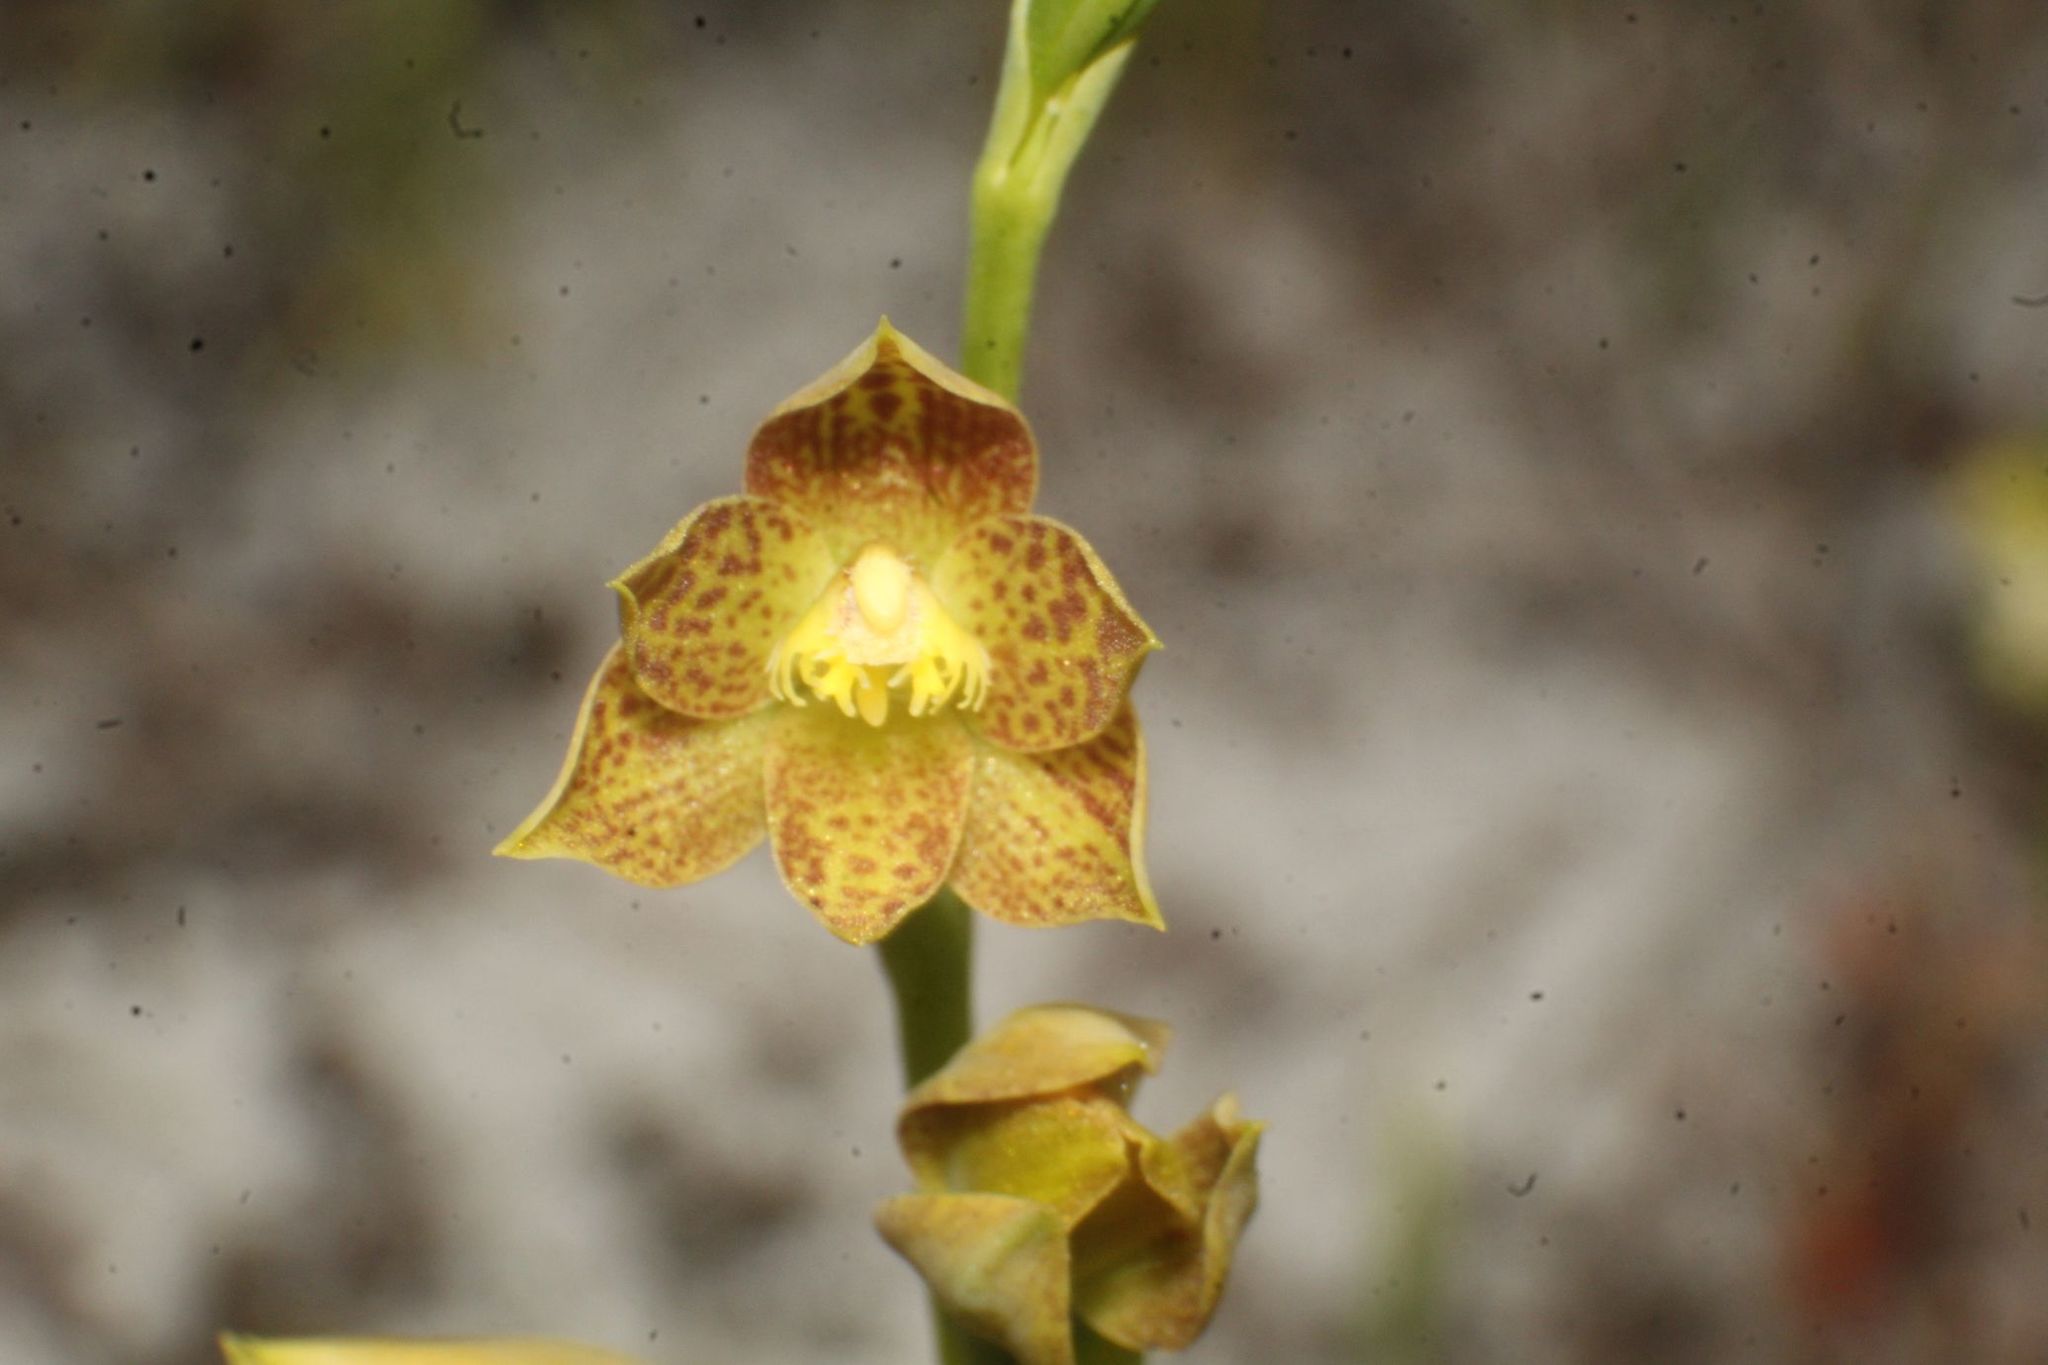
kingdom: Plantae
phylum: Tracheophyta
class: Liliopsida
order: Asparagales
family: Orchidaceae
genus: Thelymitra
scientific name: Thelymitra benthamiana
